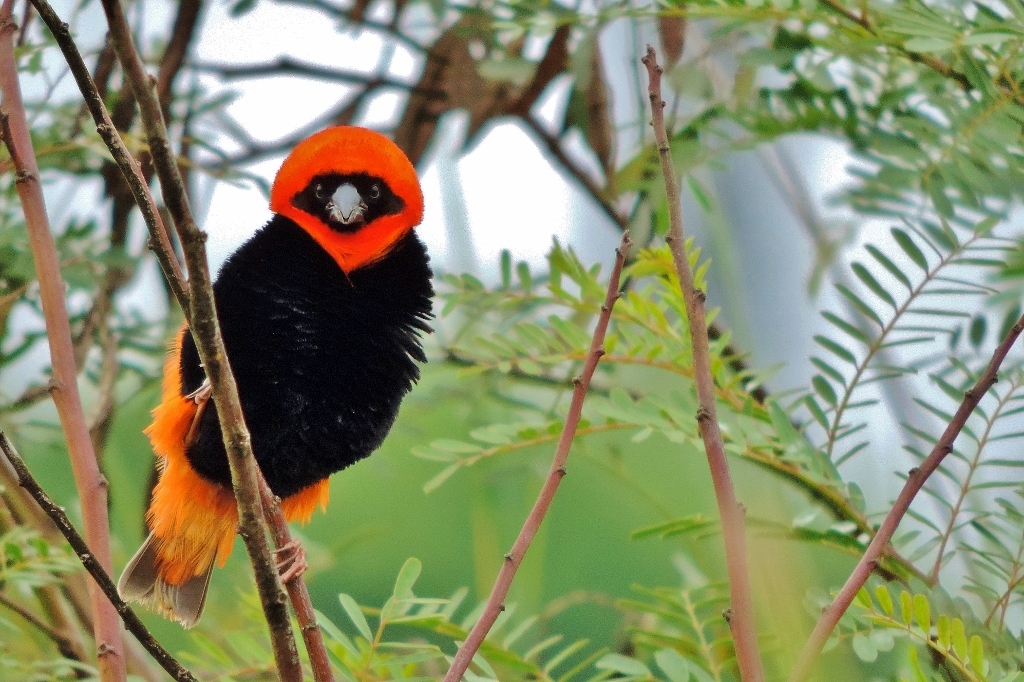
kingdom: Animalia
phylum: Chordata
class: Aves
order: Passeriformes
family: Ploceidae
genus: Euplectes
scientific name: Euplectes orix
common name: Southern red bishop
